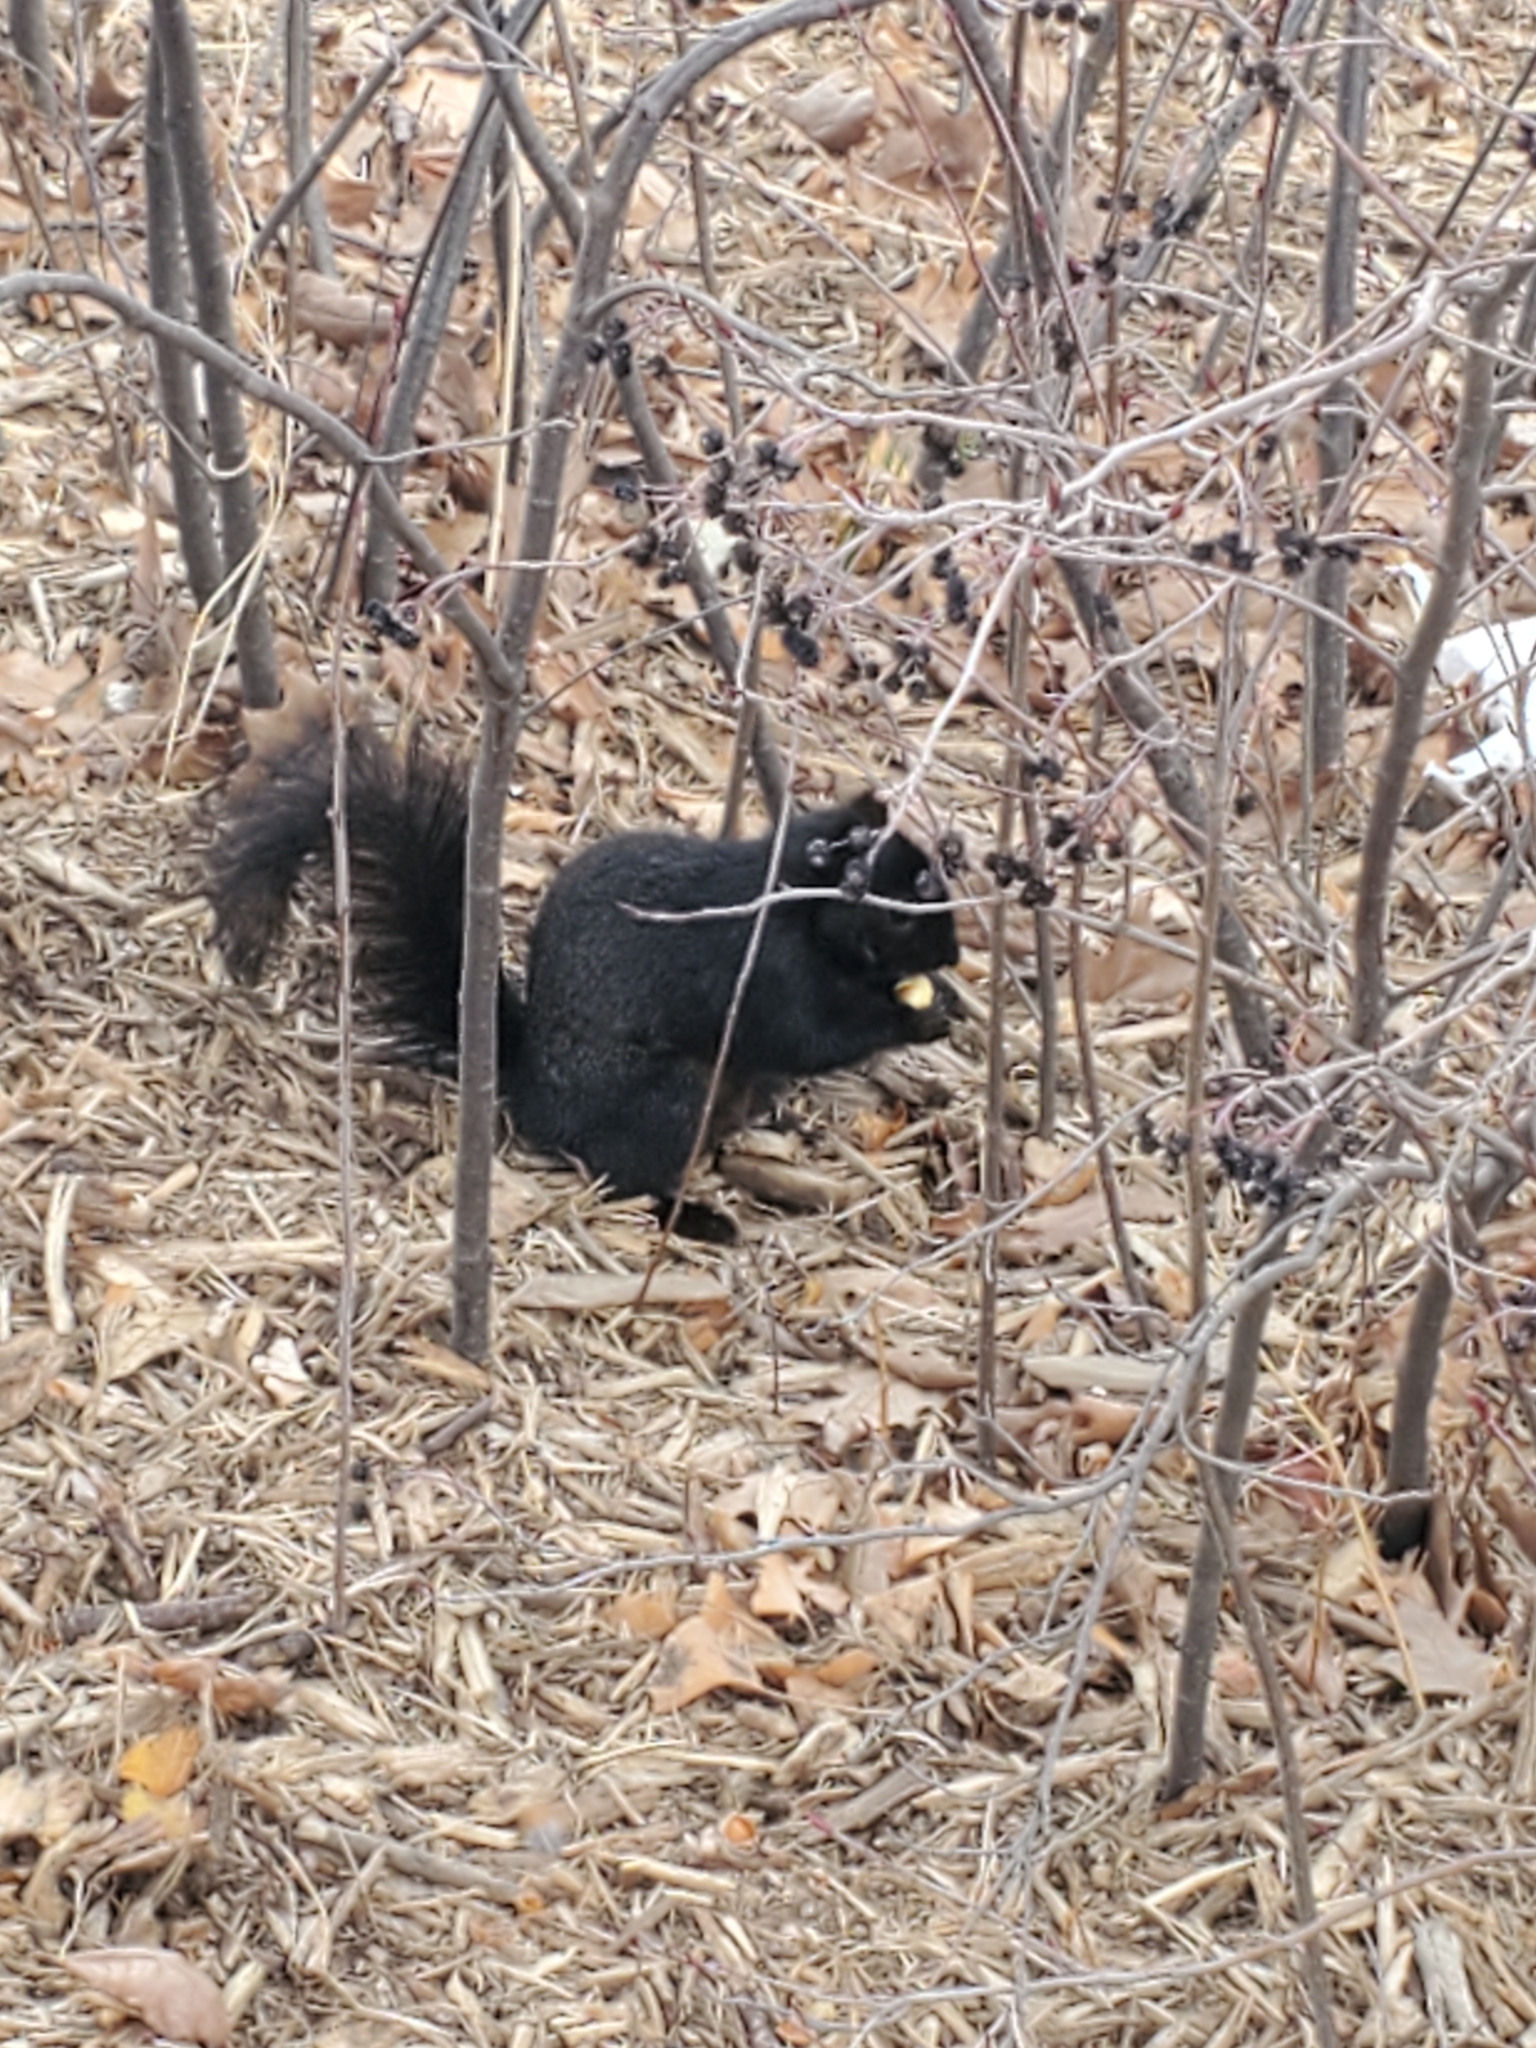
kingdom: Animalia
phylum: Chordata
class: Mammalia
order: Rodentia
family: Sciuridae
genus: Sciurus
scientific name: Sciurus niger
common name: Fox squirrel
